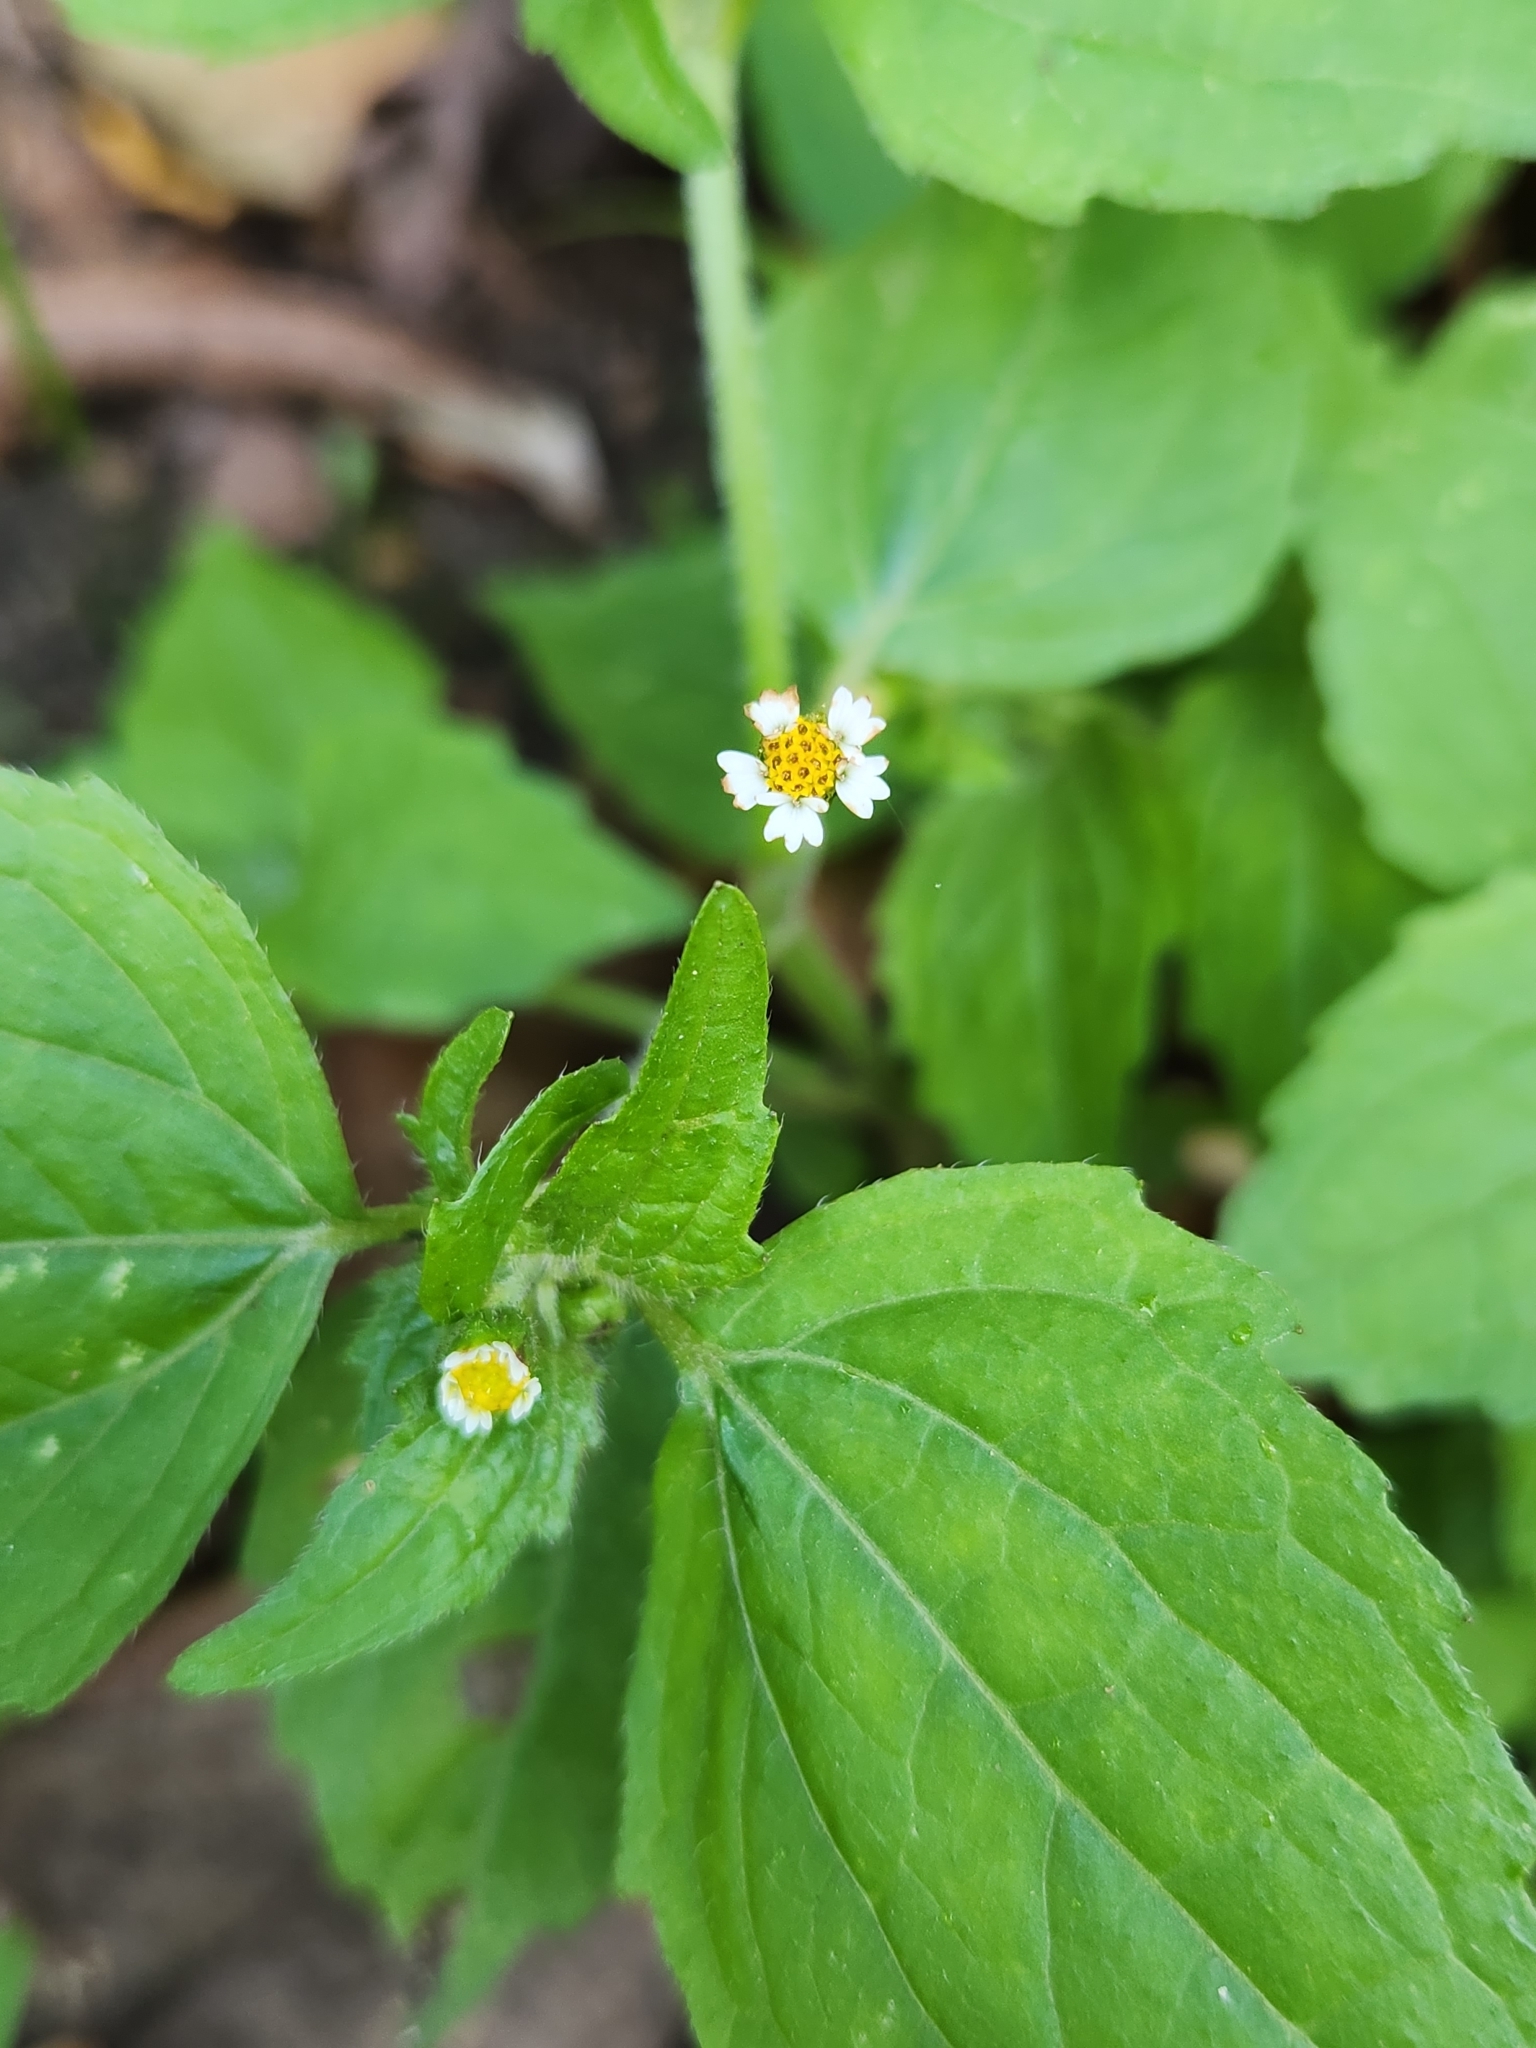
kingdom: Plantae
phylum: Tracheophyta
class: Magnoliopsida
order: Asterales
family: Asteraceae
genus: Galinsoga
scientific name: Galinsoga quadriradiata
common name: Shaggy soldier
